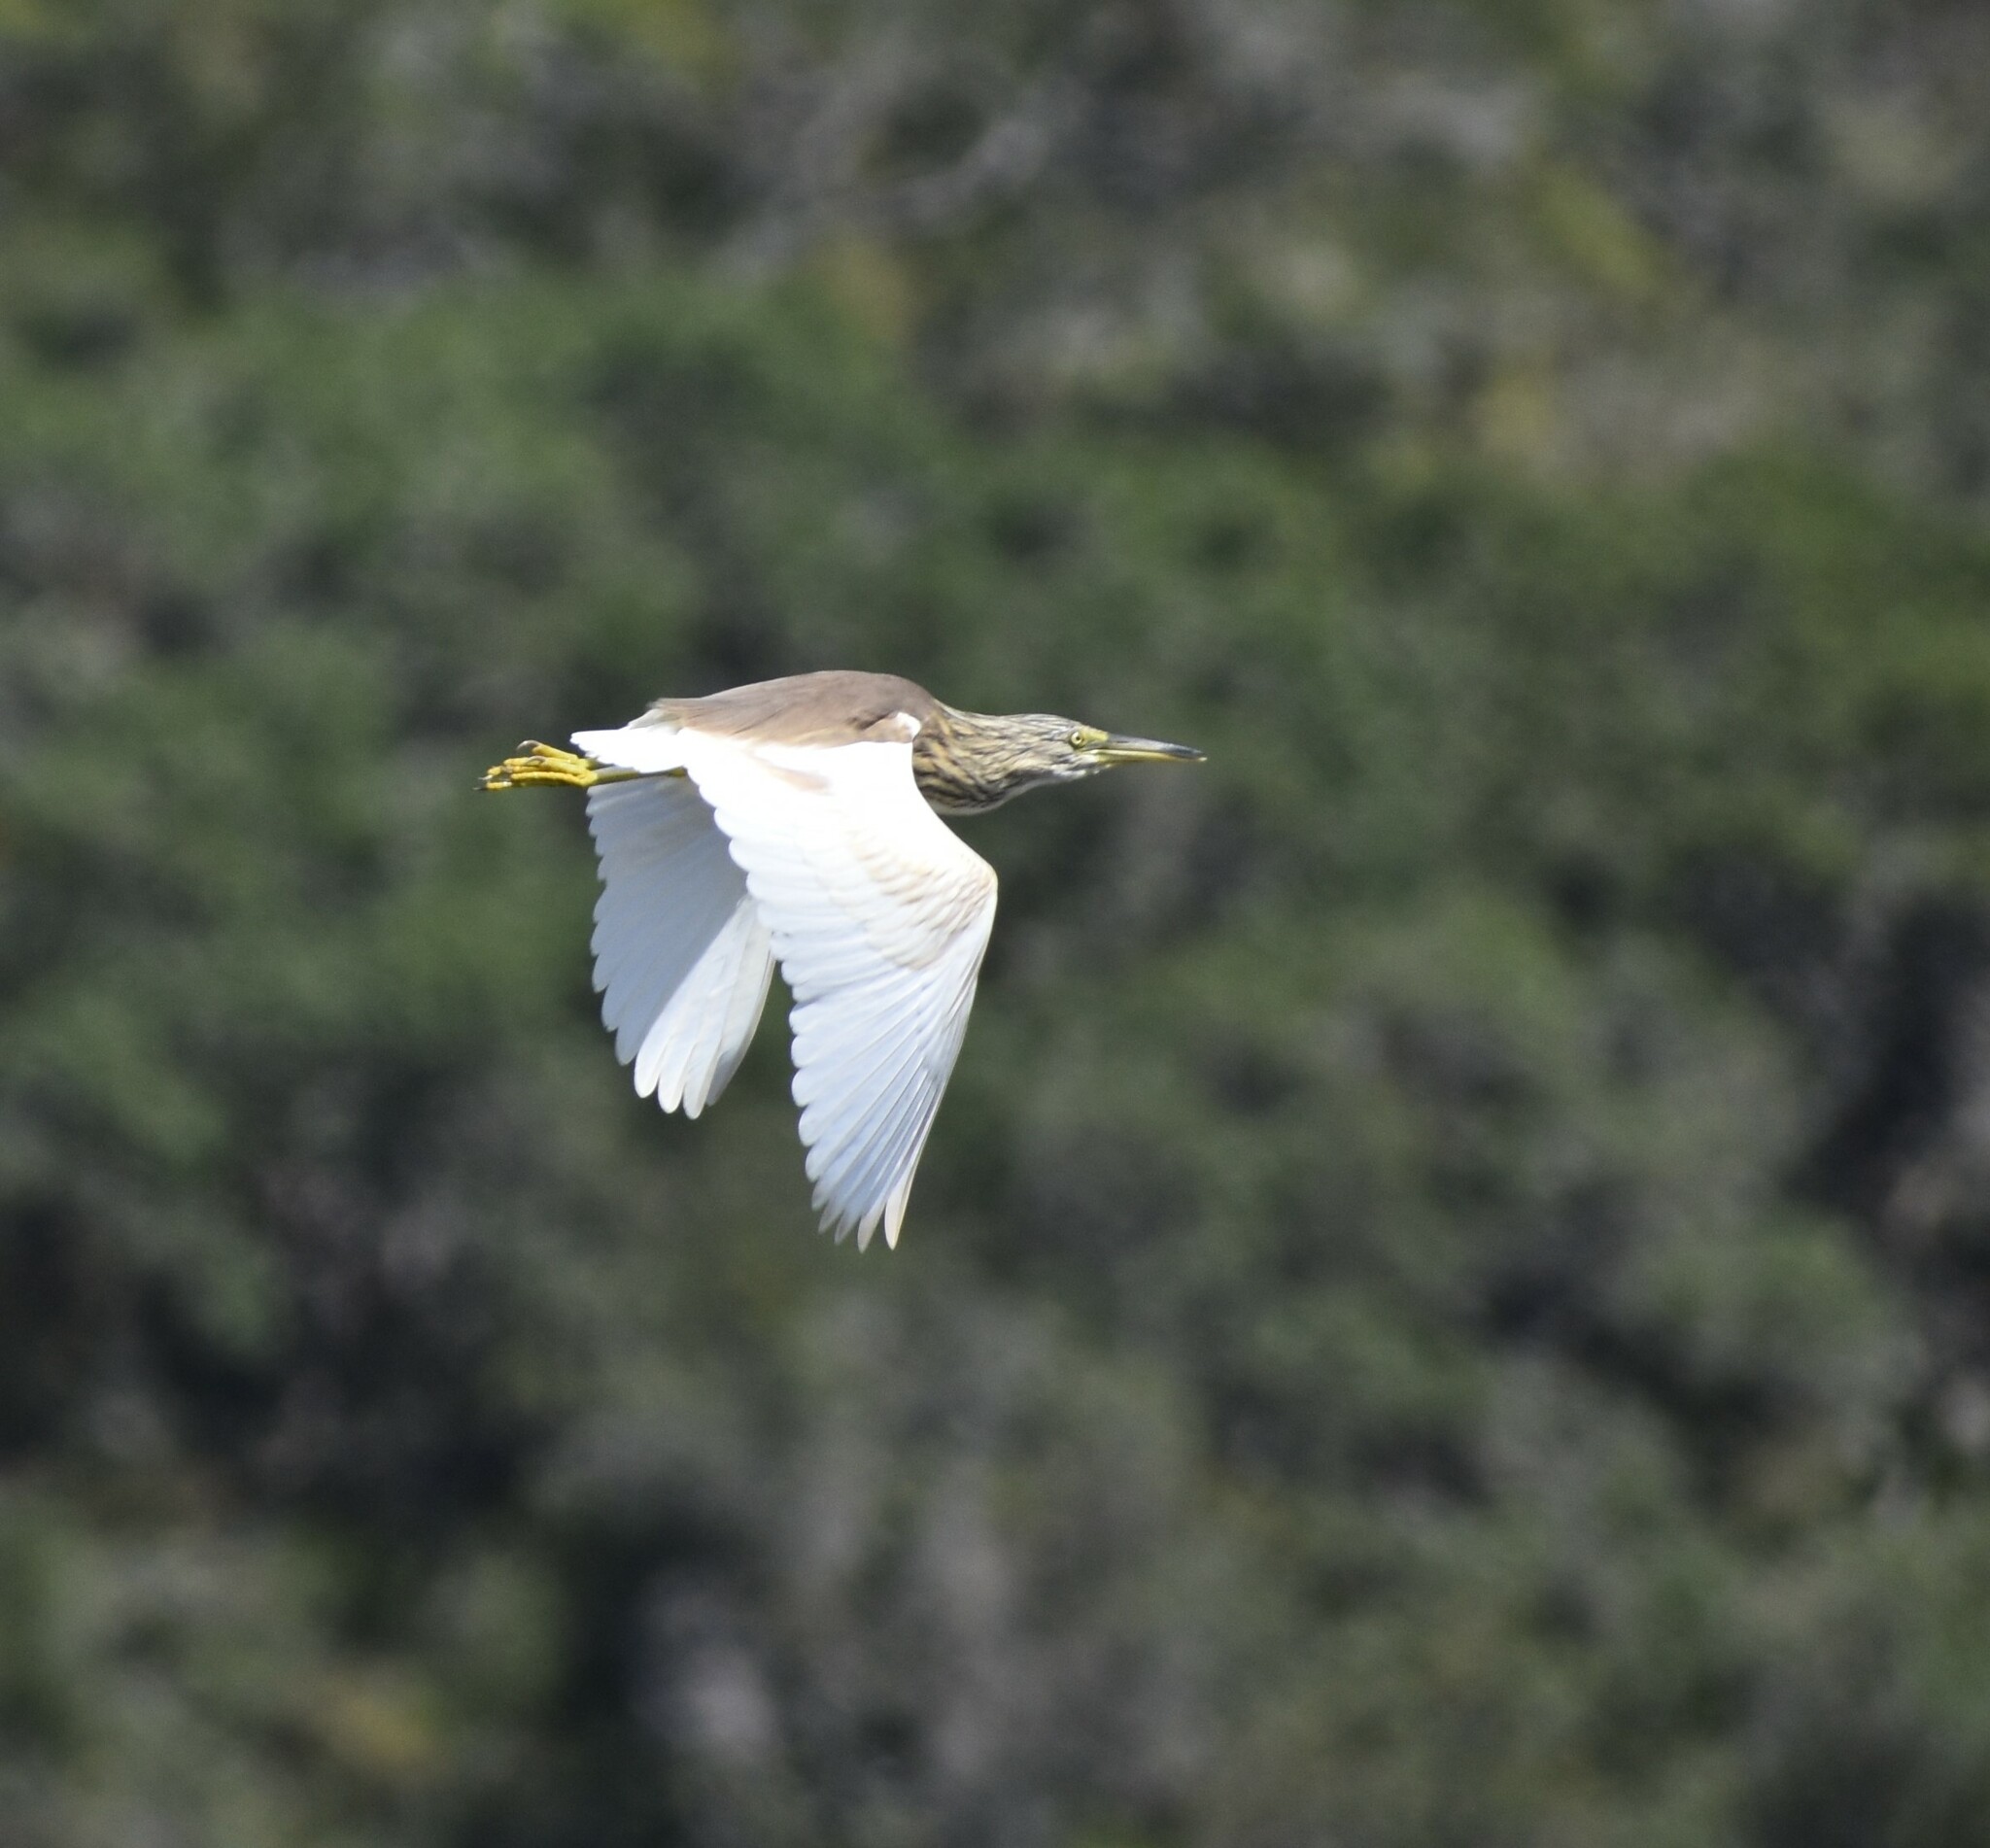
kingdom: Animalia
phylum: Chordata
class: Aves
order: Pelecaniformes
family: Ardeidae
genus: Ardeola
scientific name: Ardeola ralloides
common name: Squacco heron
